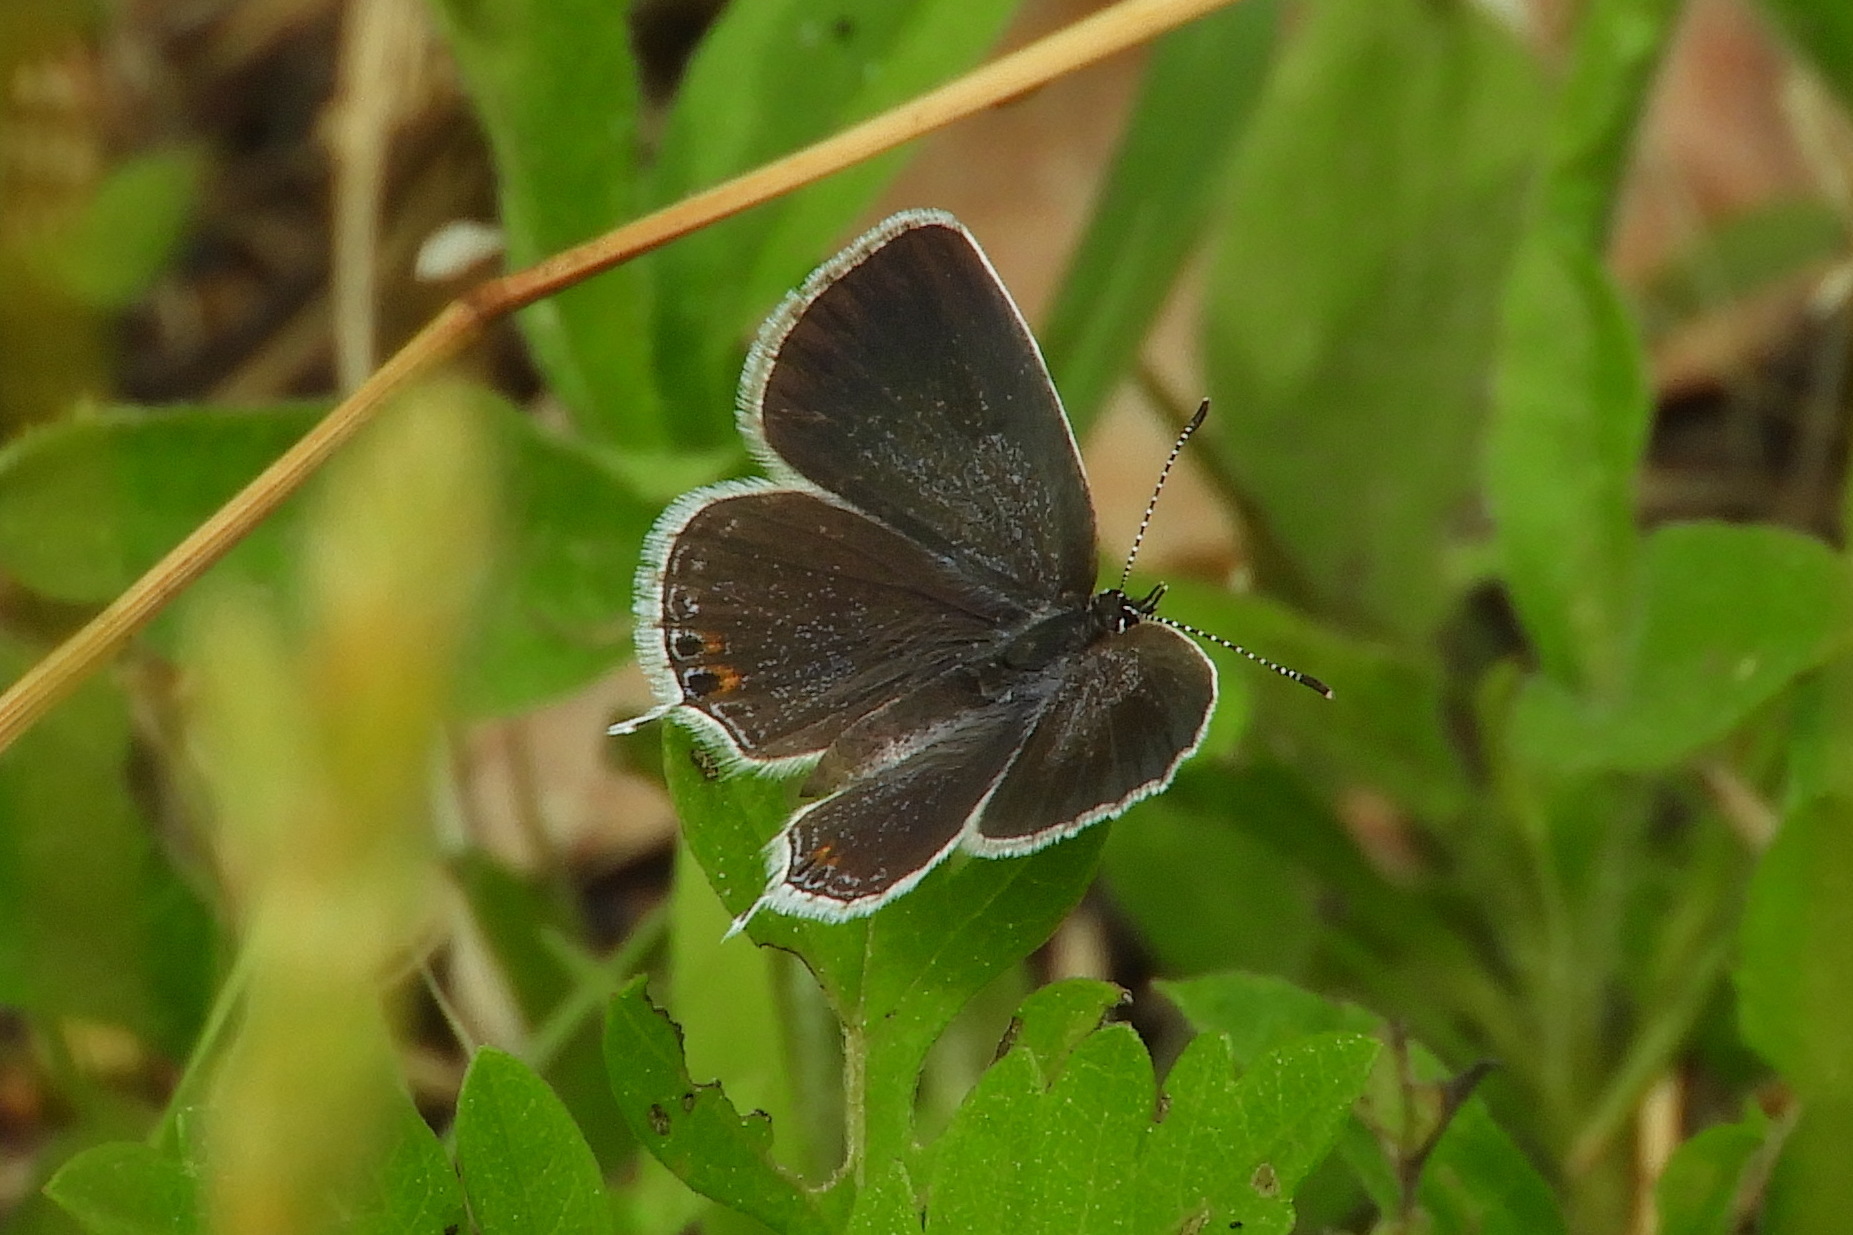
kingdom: Animalia
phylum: Arthropoda
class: Insecta
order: Lepidoptera
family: Lycaenidae
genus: Elkalyce
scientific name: Elkalyce comyntas
